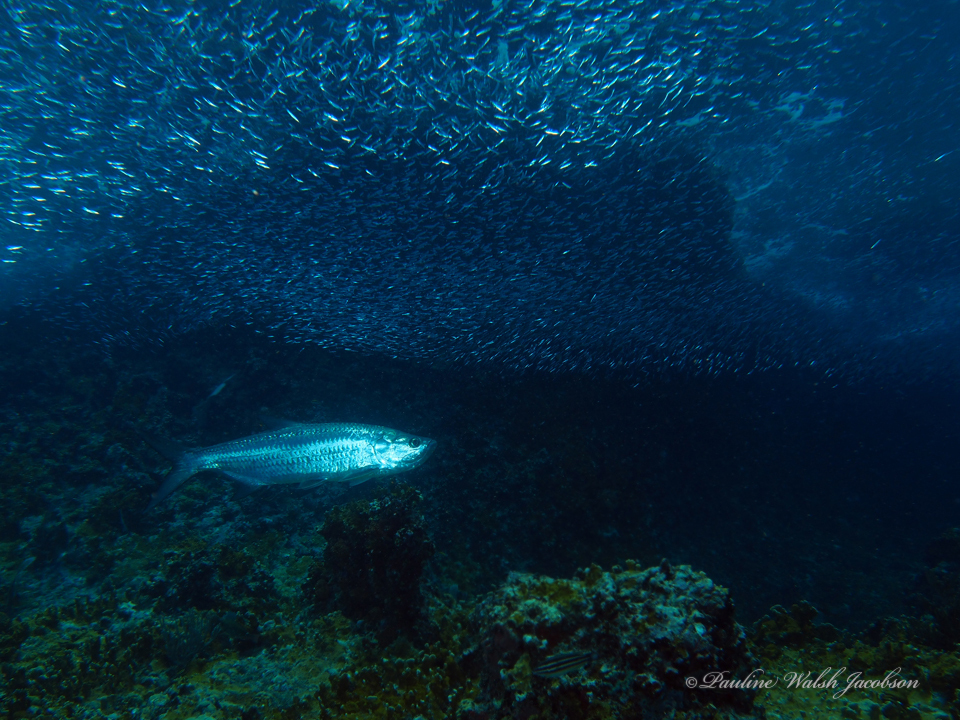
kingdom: Animalia
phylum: Chordata
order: Elopiformes
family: Megalopidae
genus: Megalops
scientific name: Megalops atlanticus
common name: Tarpon
